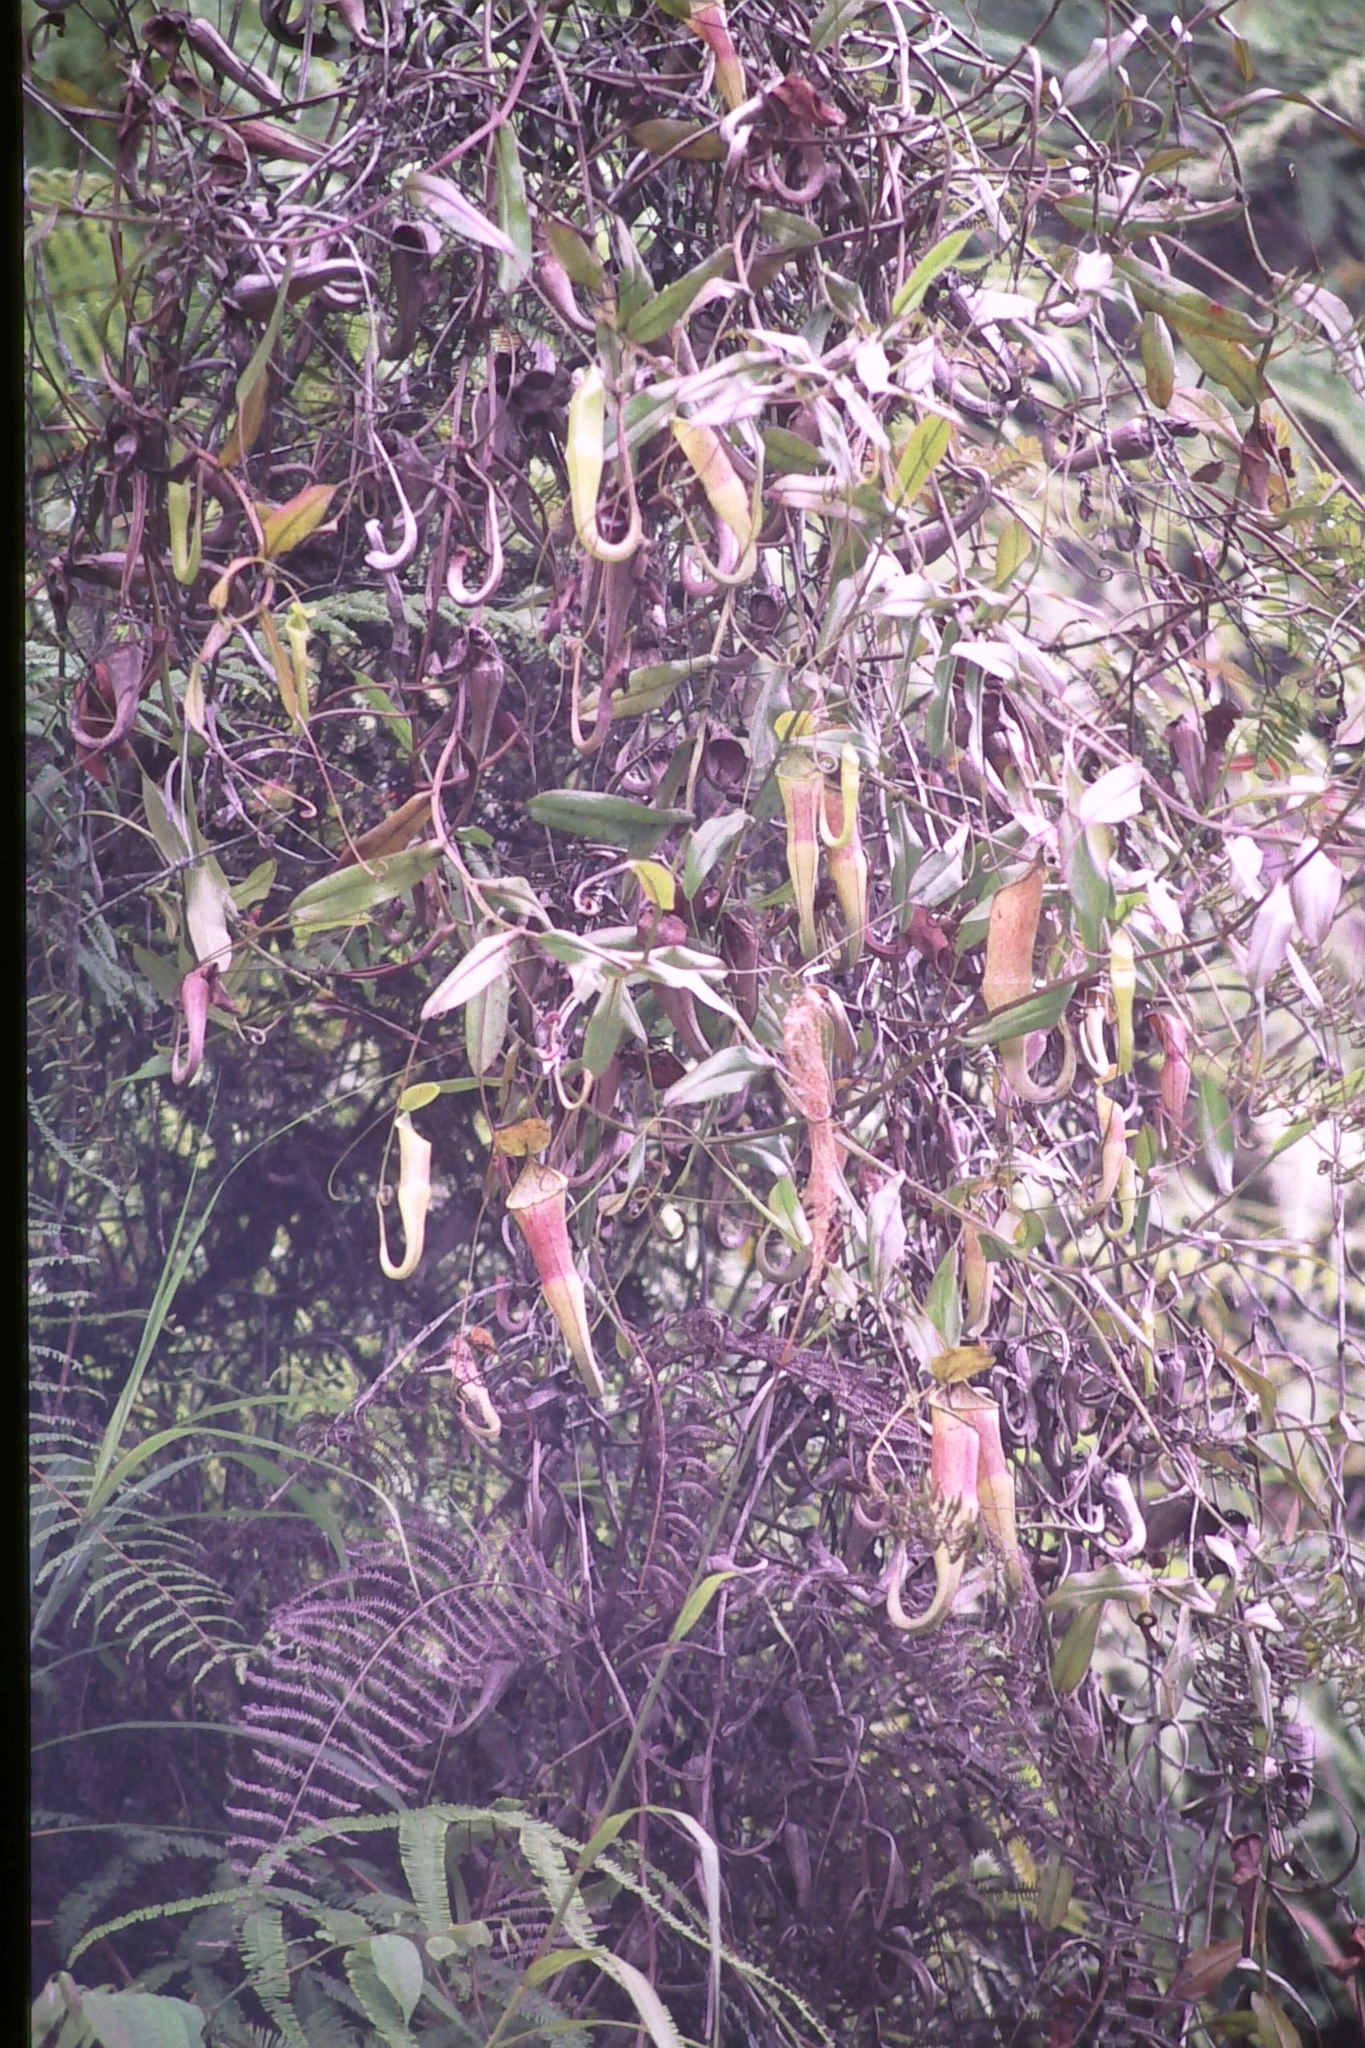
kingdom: Plantae
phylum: Tracheophyta
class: Magnoliopsida
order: Caryophyllales
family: Nepenthaceae
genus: Nepenthes
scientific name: Nepenthes sanguinea
